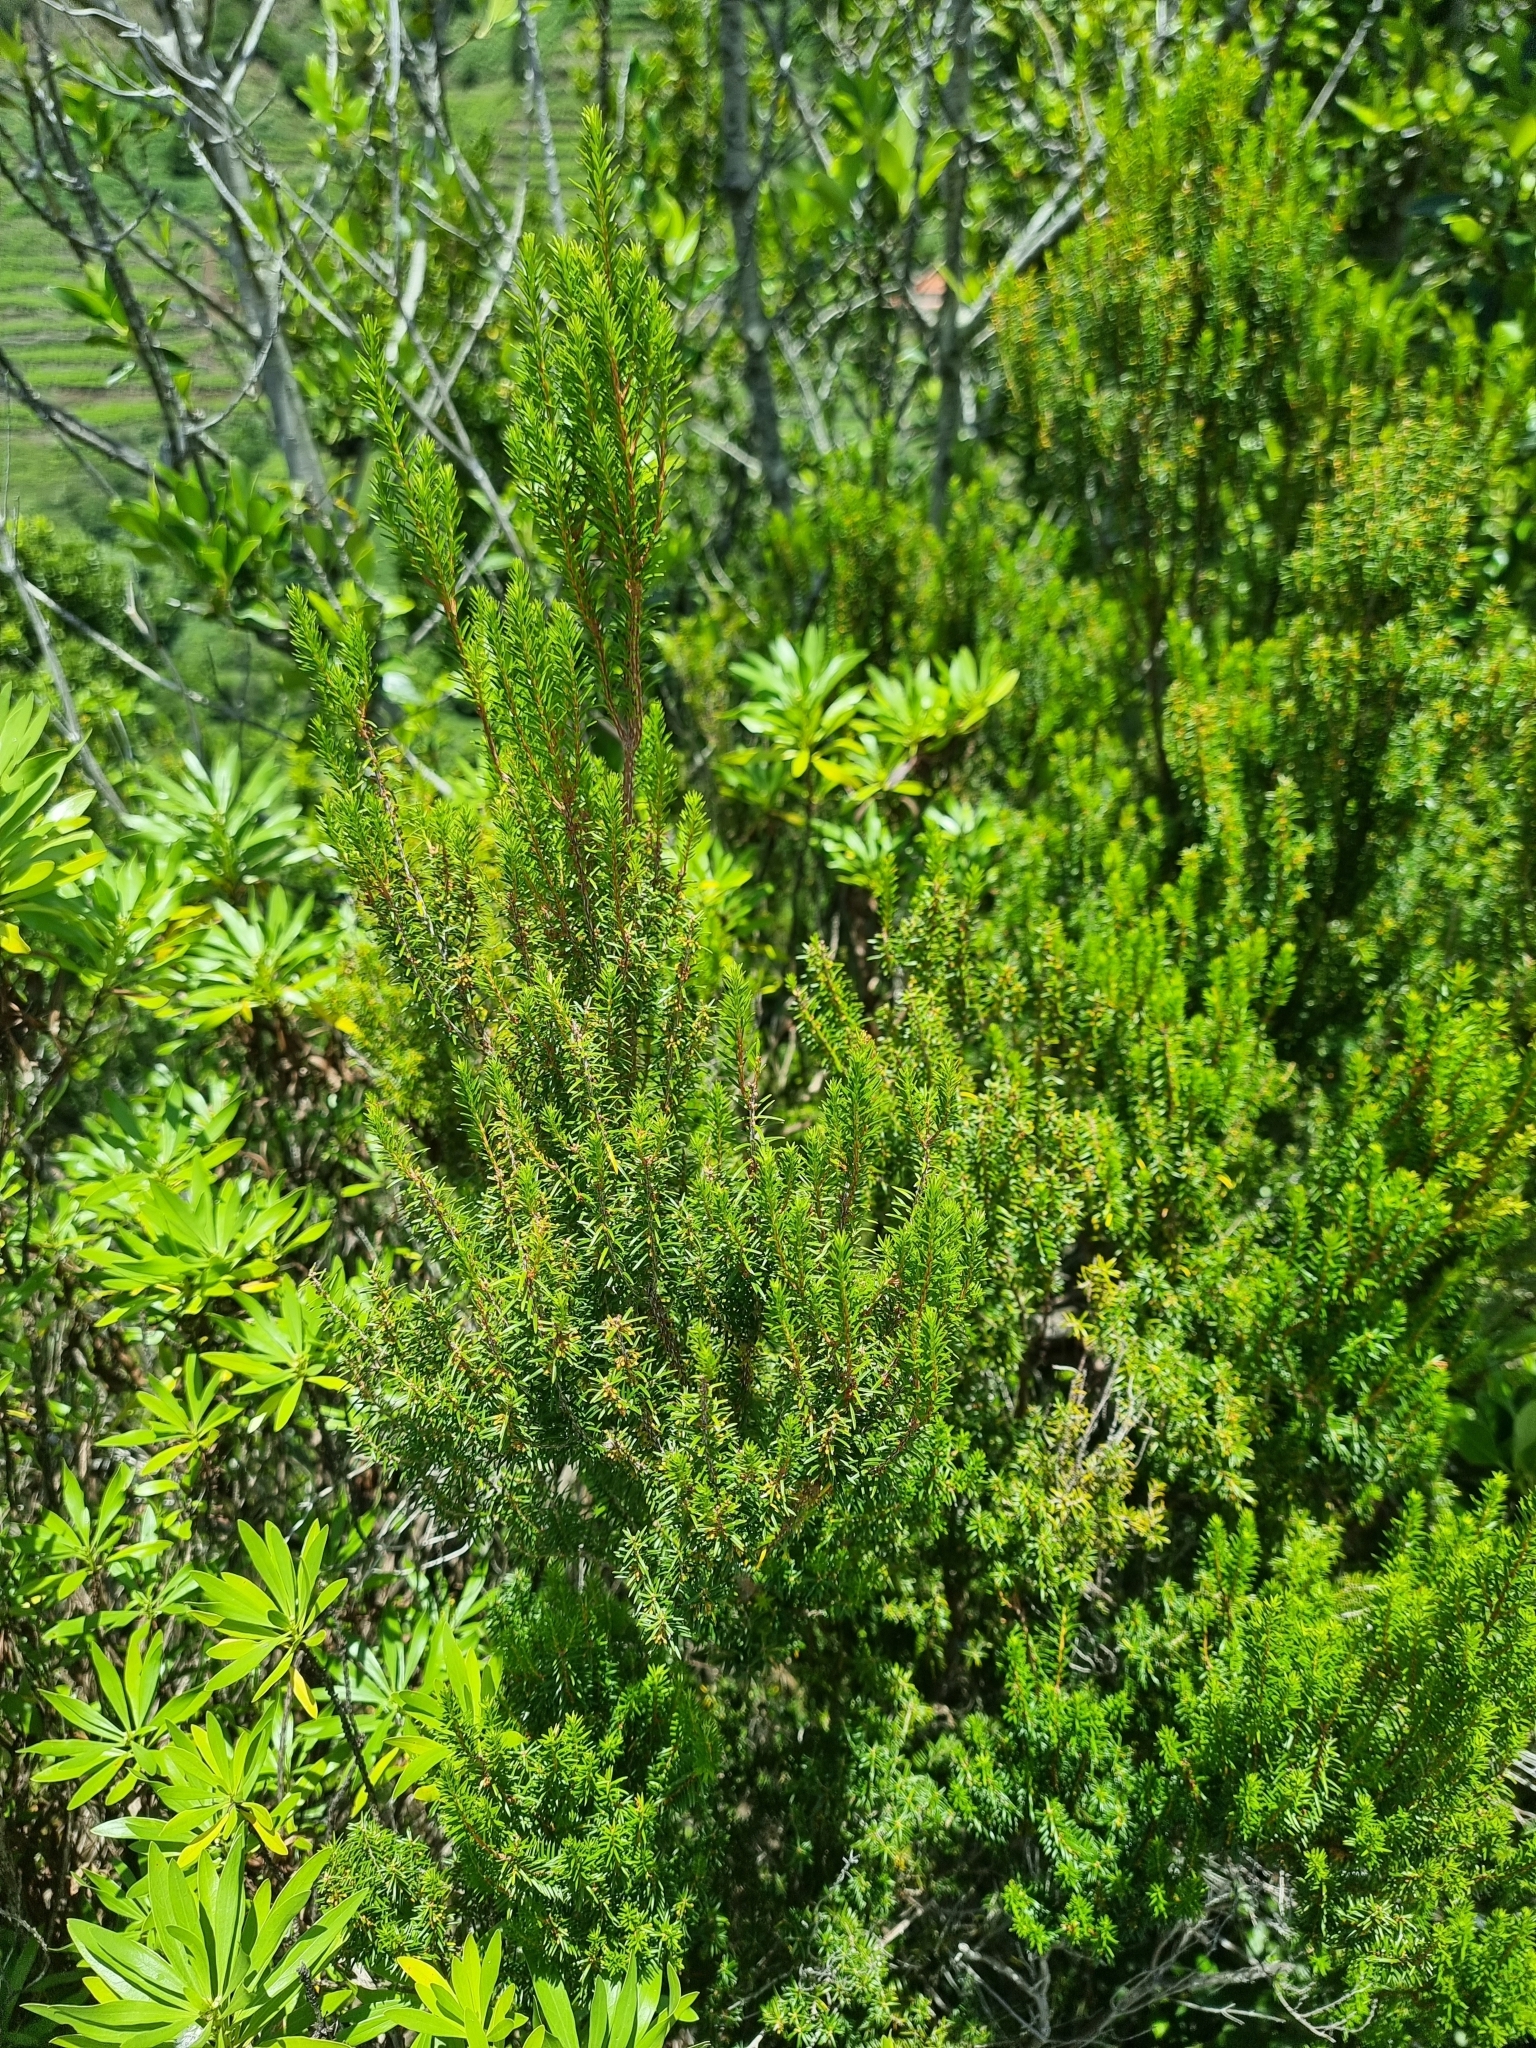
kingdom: Plantae
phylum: Tracheophyta
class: Magnoliopsida
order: Ericales
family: Ericaceae
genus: Erica
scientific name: Erica platycodon
